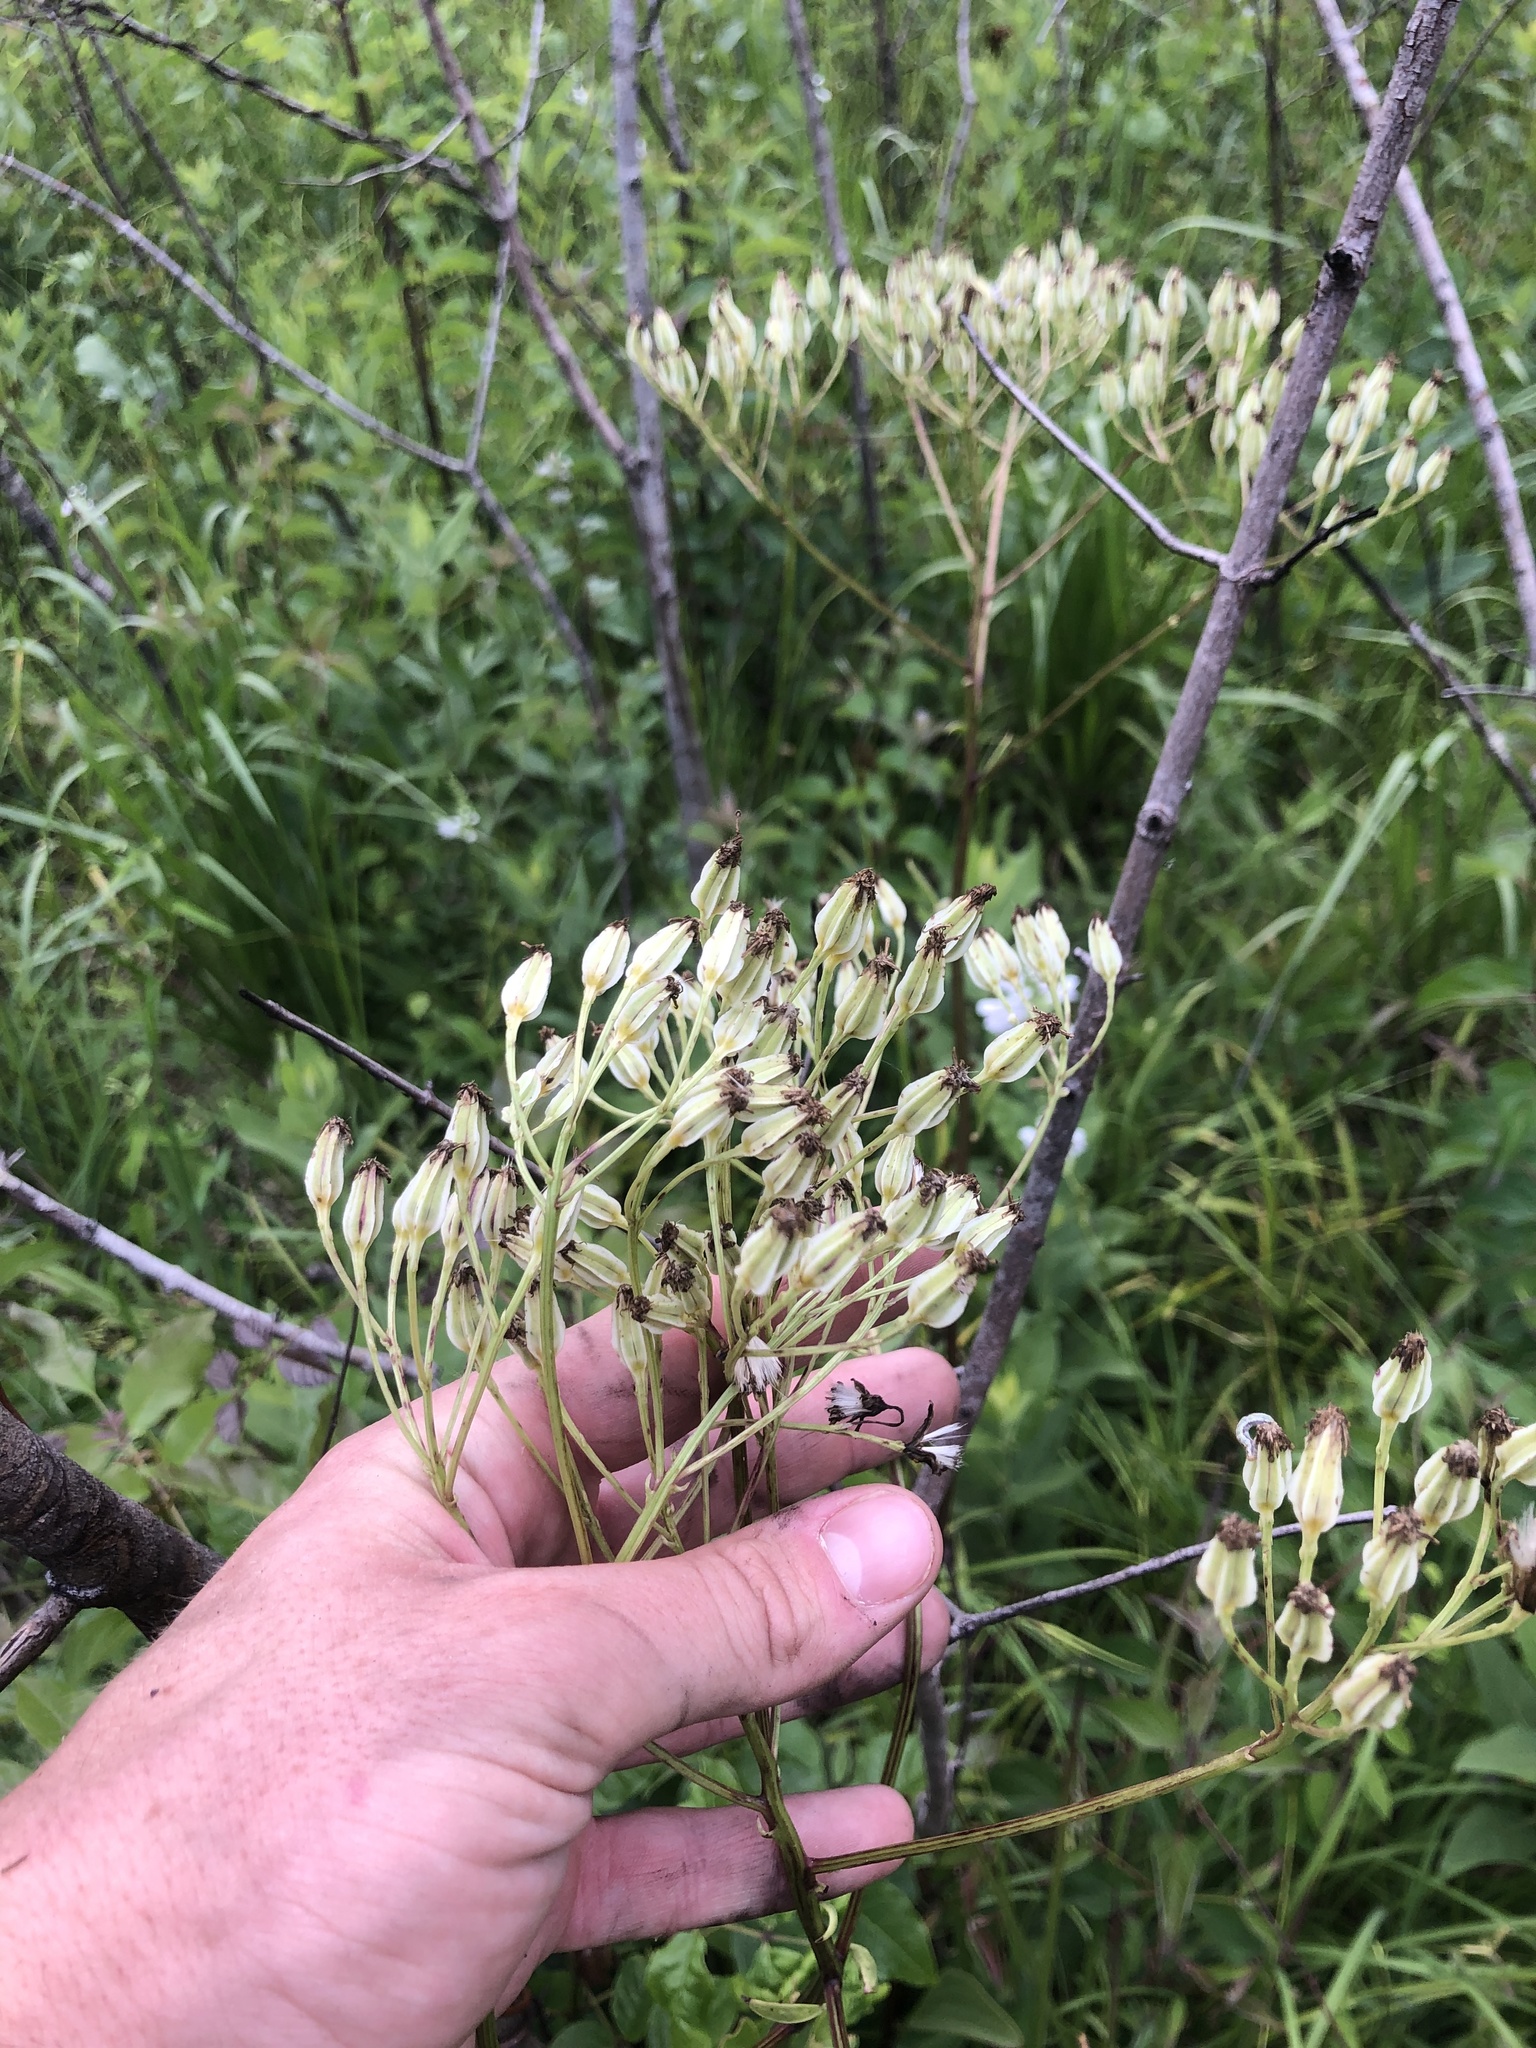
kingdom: Plantae
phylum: Tracheophyta
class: Magnoliopsida
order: Asterales
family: Asteraceae
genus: Arnoglossum
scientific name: Arnoglossum plantagineum
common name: Groove-stemmed indian-plantain
